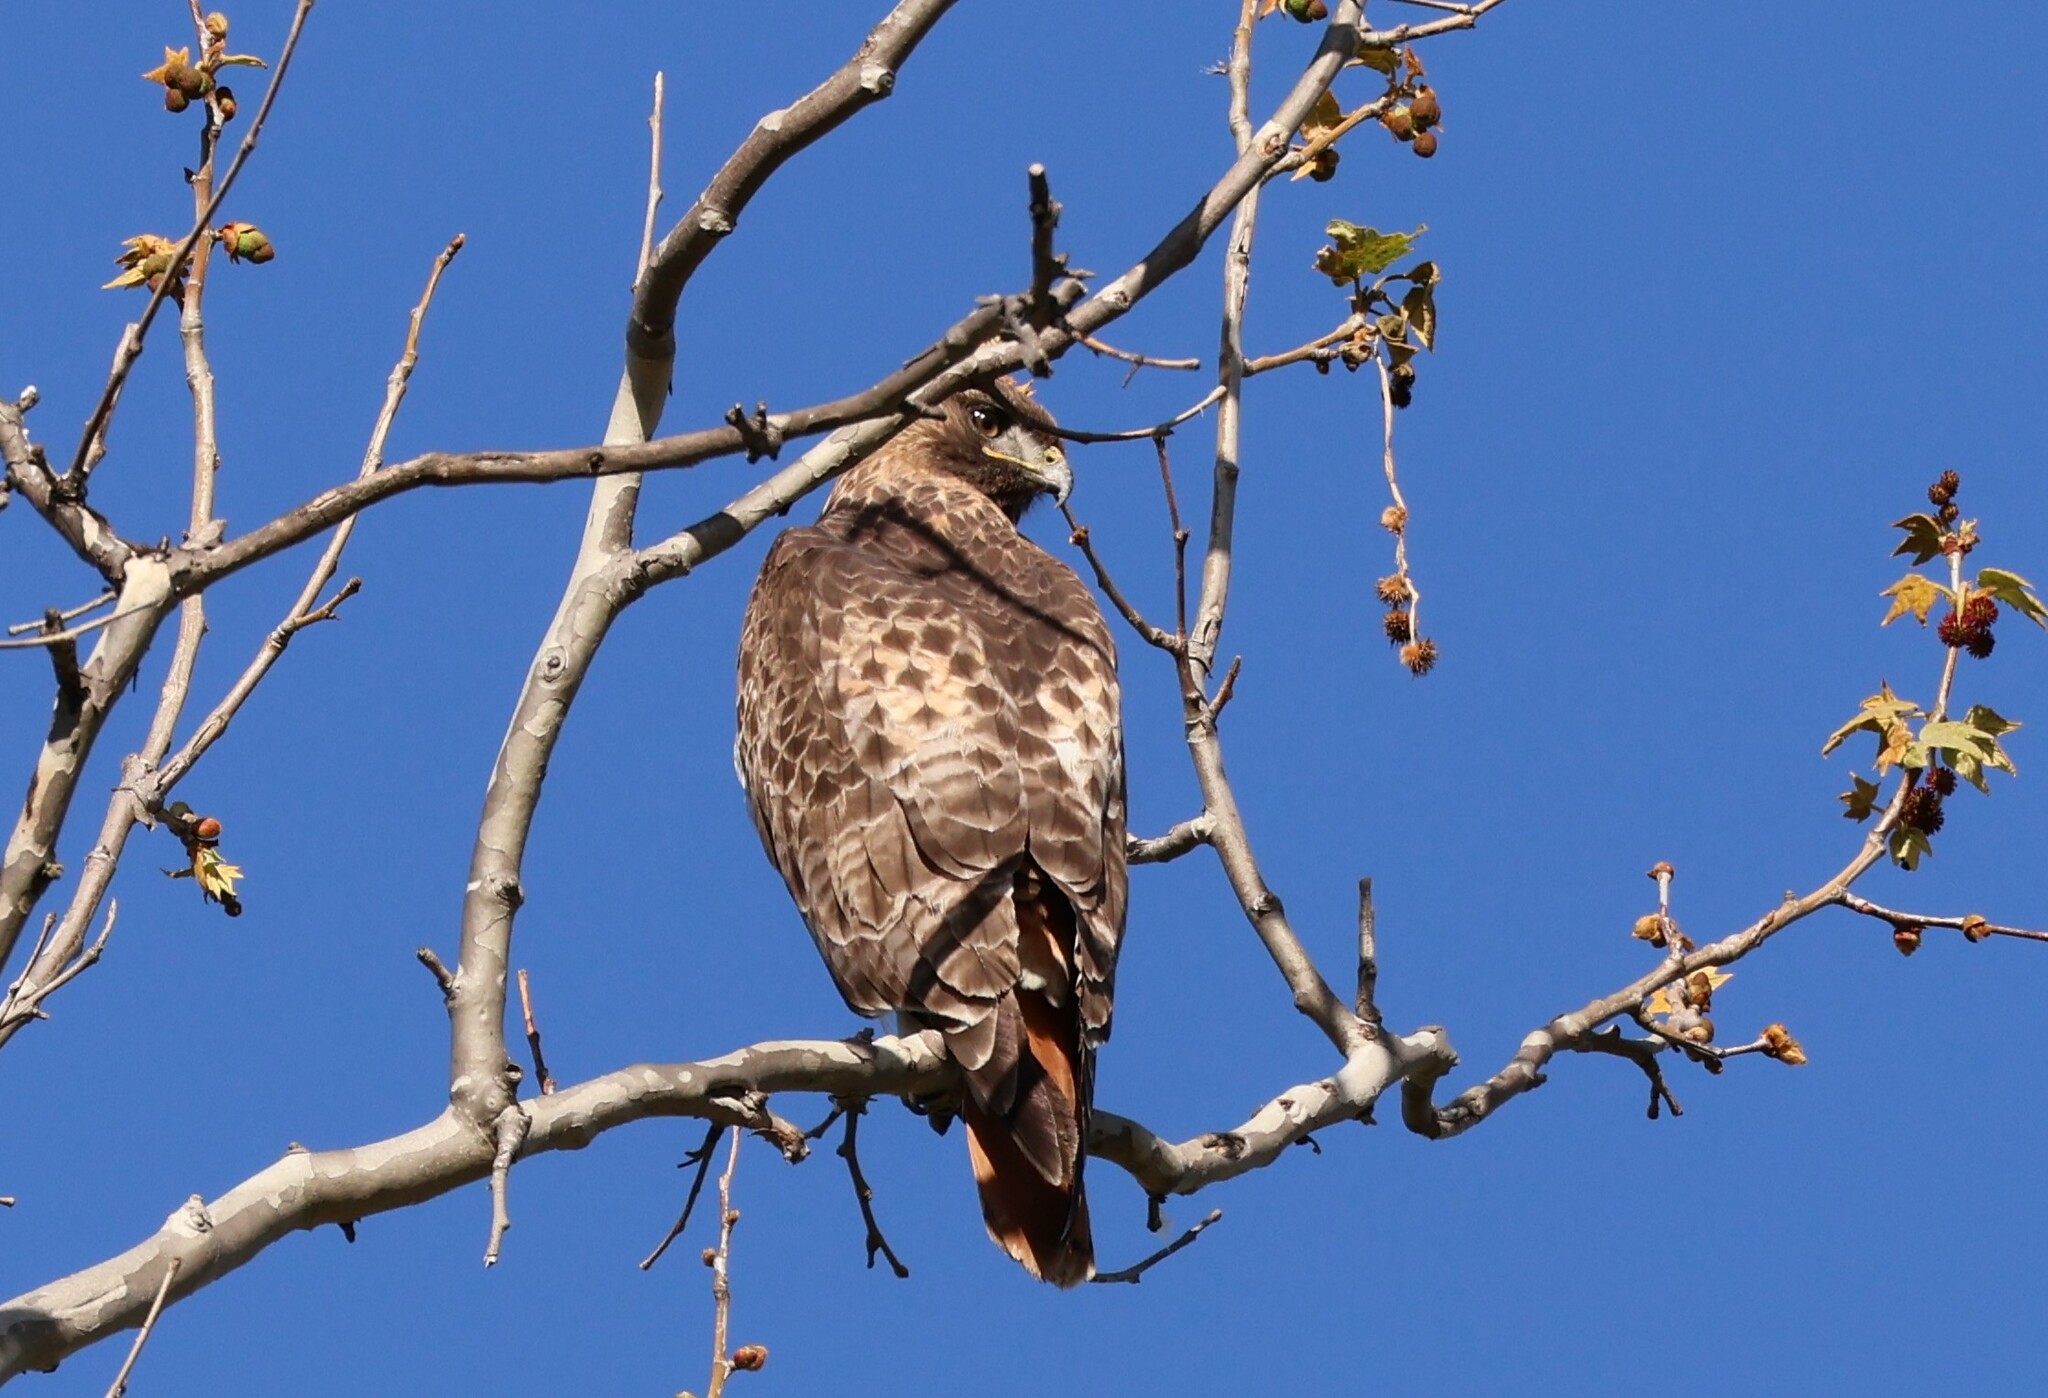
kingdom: Animalia
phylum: Chordata
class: Aves
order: Accipitriformes
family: Accipitridae
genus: Buteo
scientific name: Buteo jamaicensis
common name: Red-tailed hawk
